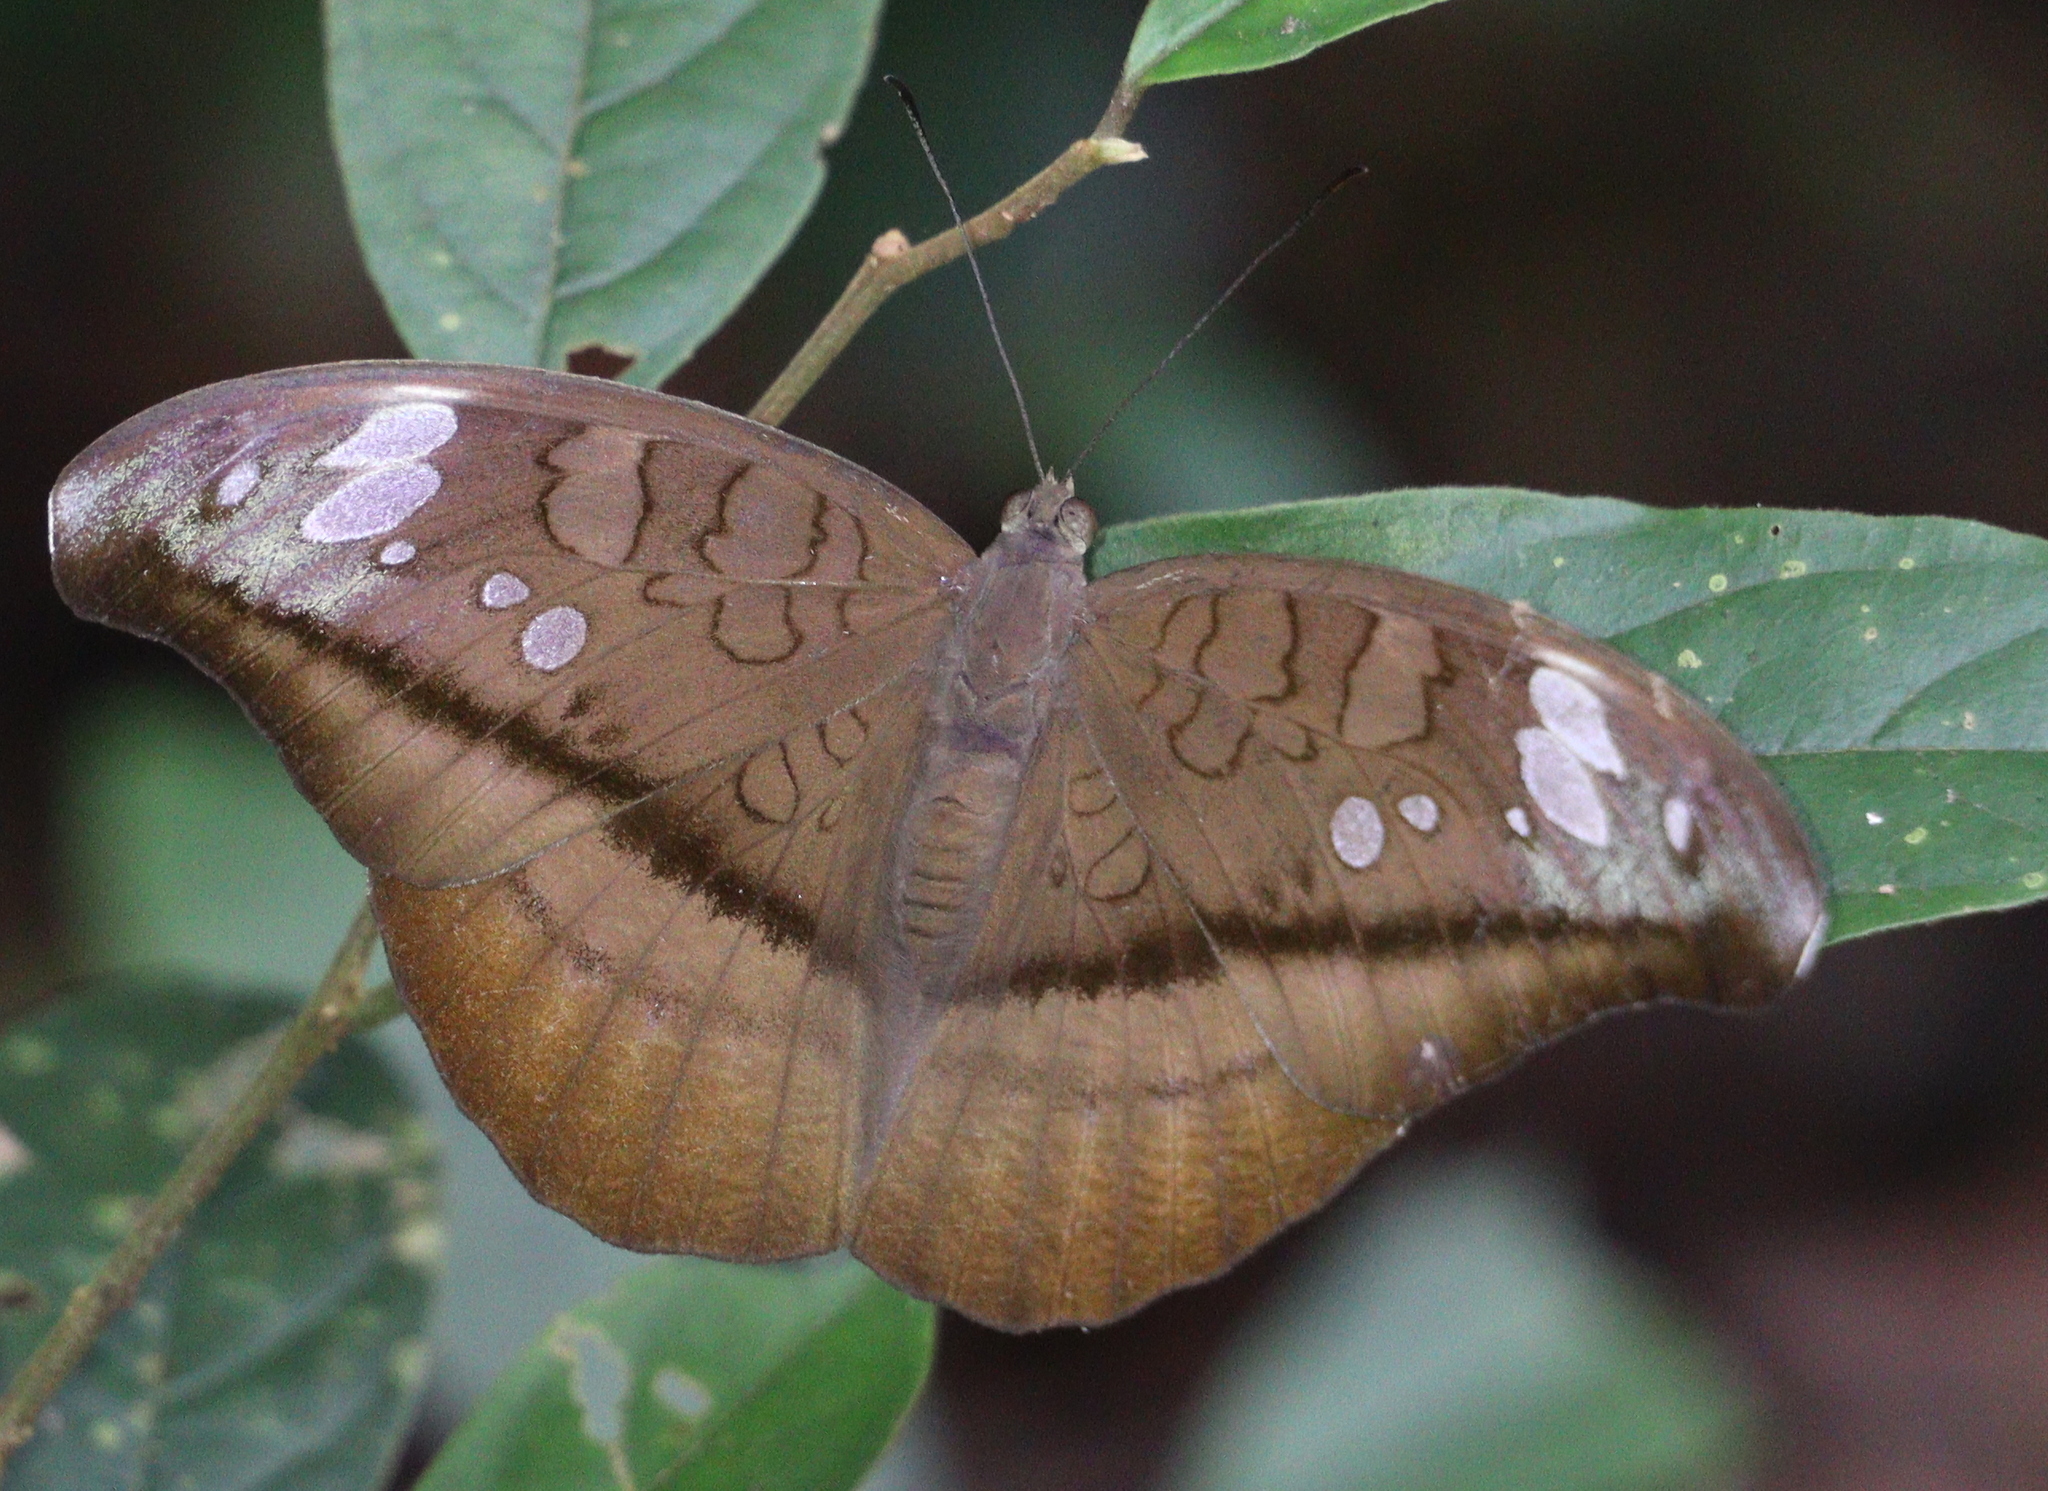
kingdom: Animalia
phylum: Arthropoda
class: Insecta
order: Lepidoptera
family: Nymphalidae
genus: Tanaecia
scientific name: Tanaecia cocytus
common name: Lavender count
